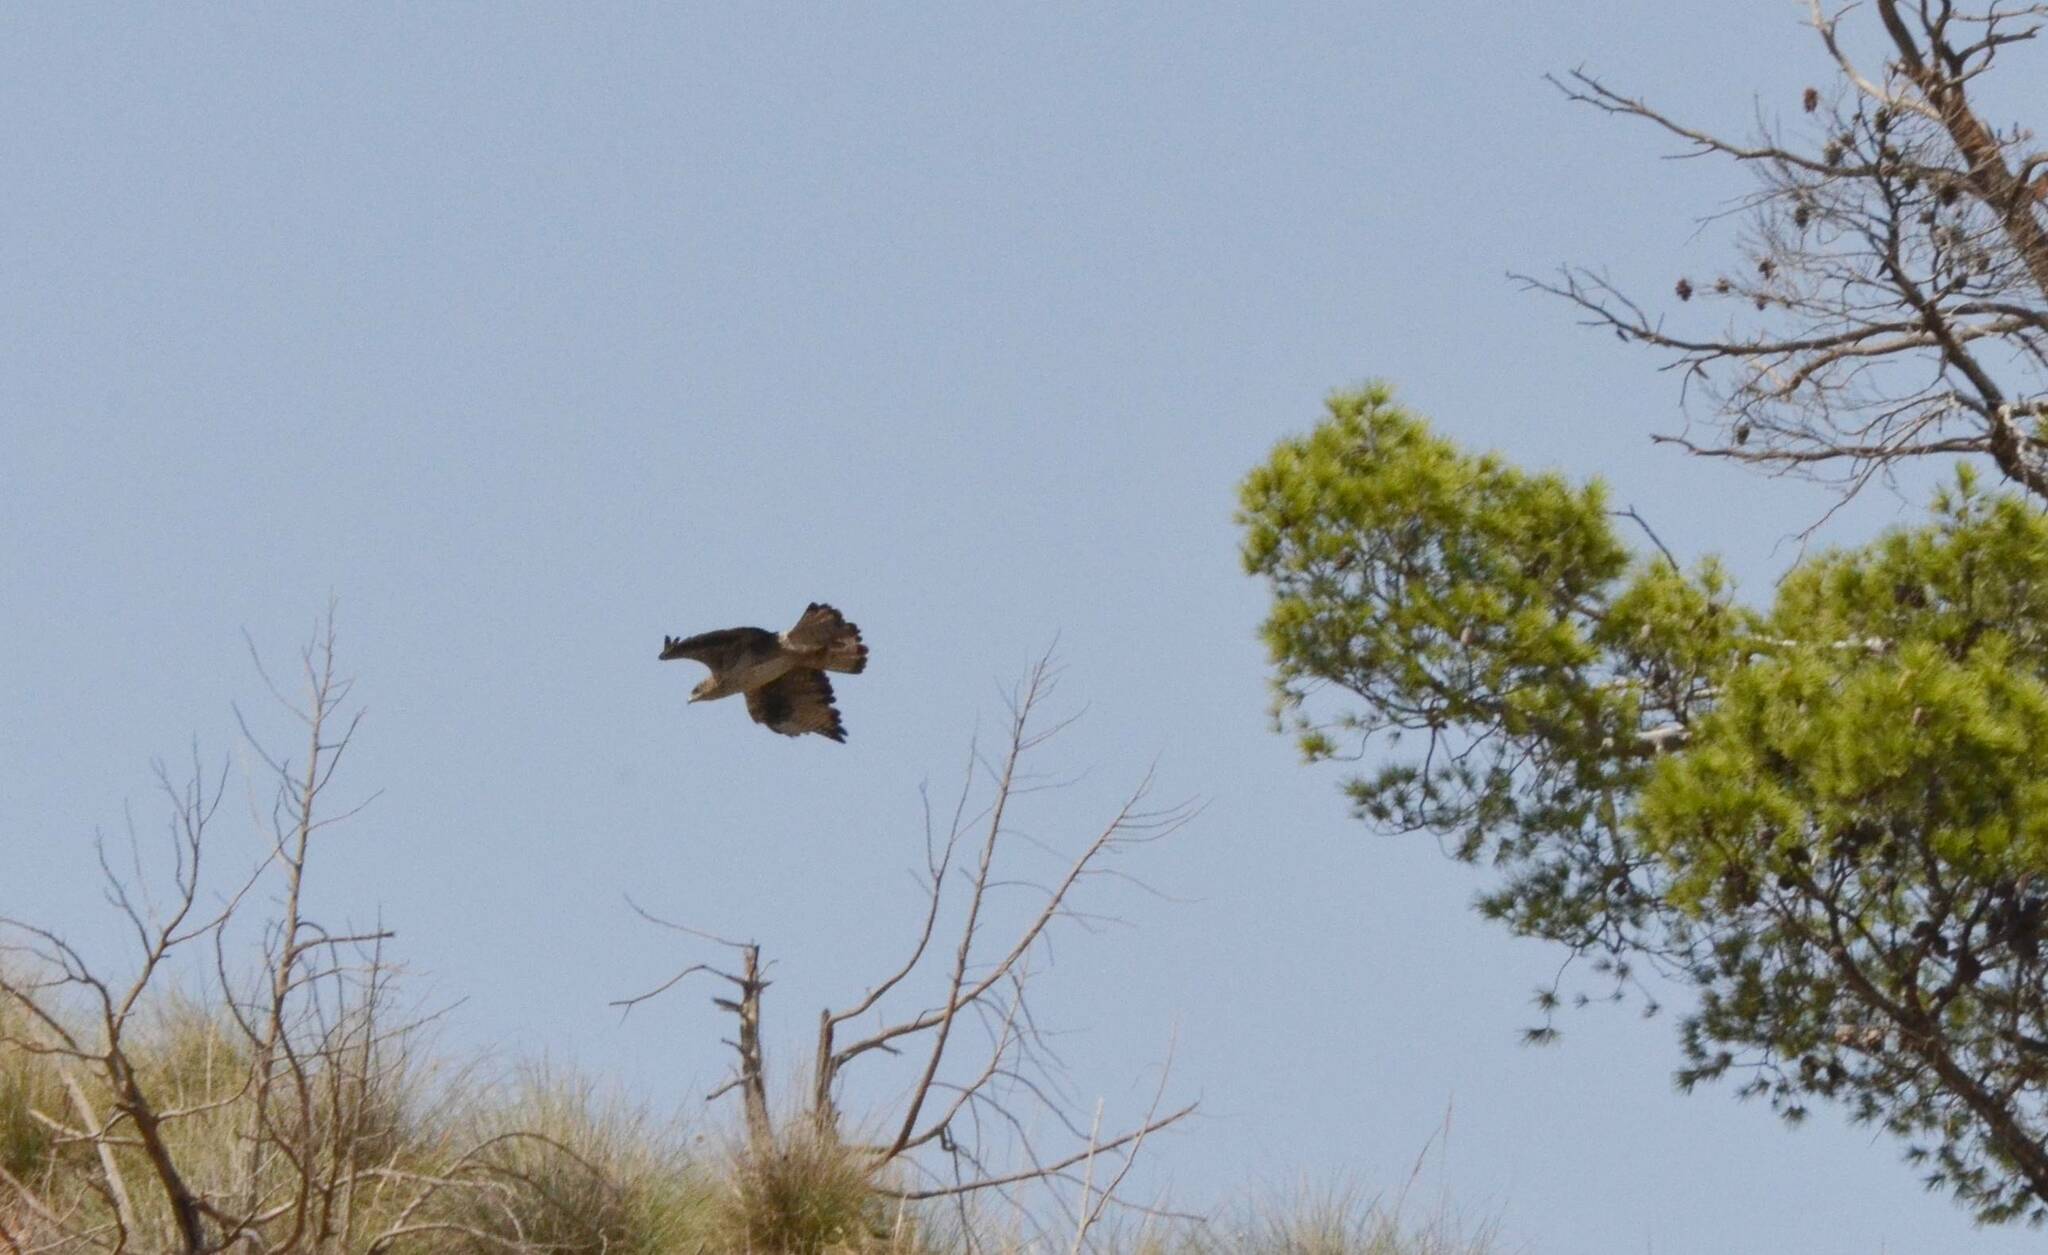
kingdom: Animalia
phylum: Chordata
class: Aves
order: Accipitriformes
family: Accipitridae
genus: Aquila
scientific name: Aquila fasciata
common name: Bonelli's eagle
